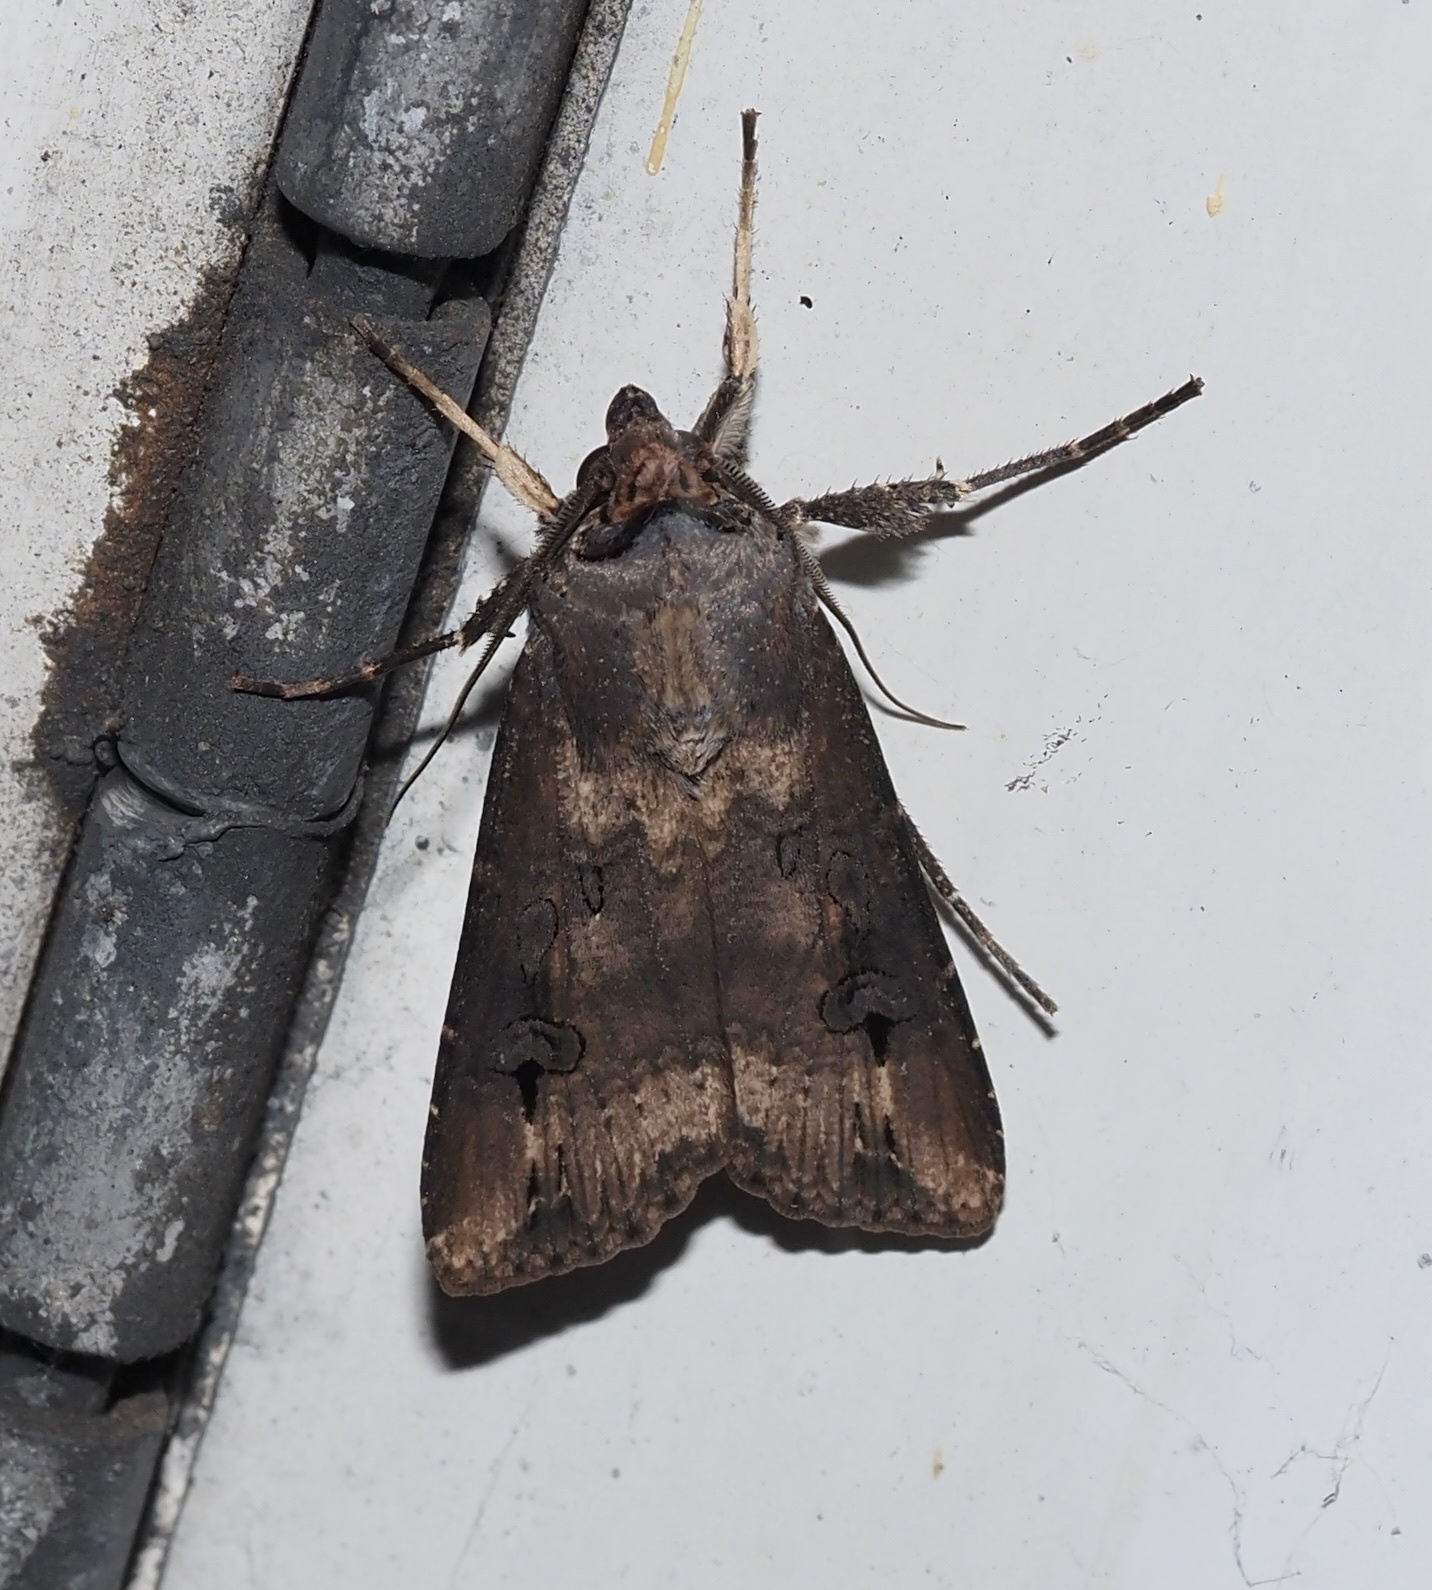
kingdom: Animalia
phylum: Arthropoda
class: Insecta
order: Lepidoptera
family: Noctuidae
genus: Agrotis
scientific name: Agrotis ipsilon
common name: Dark sword-grass
